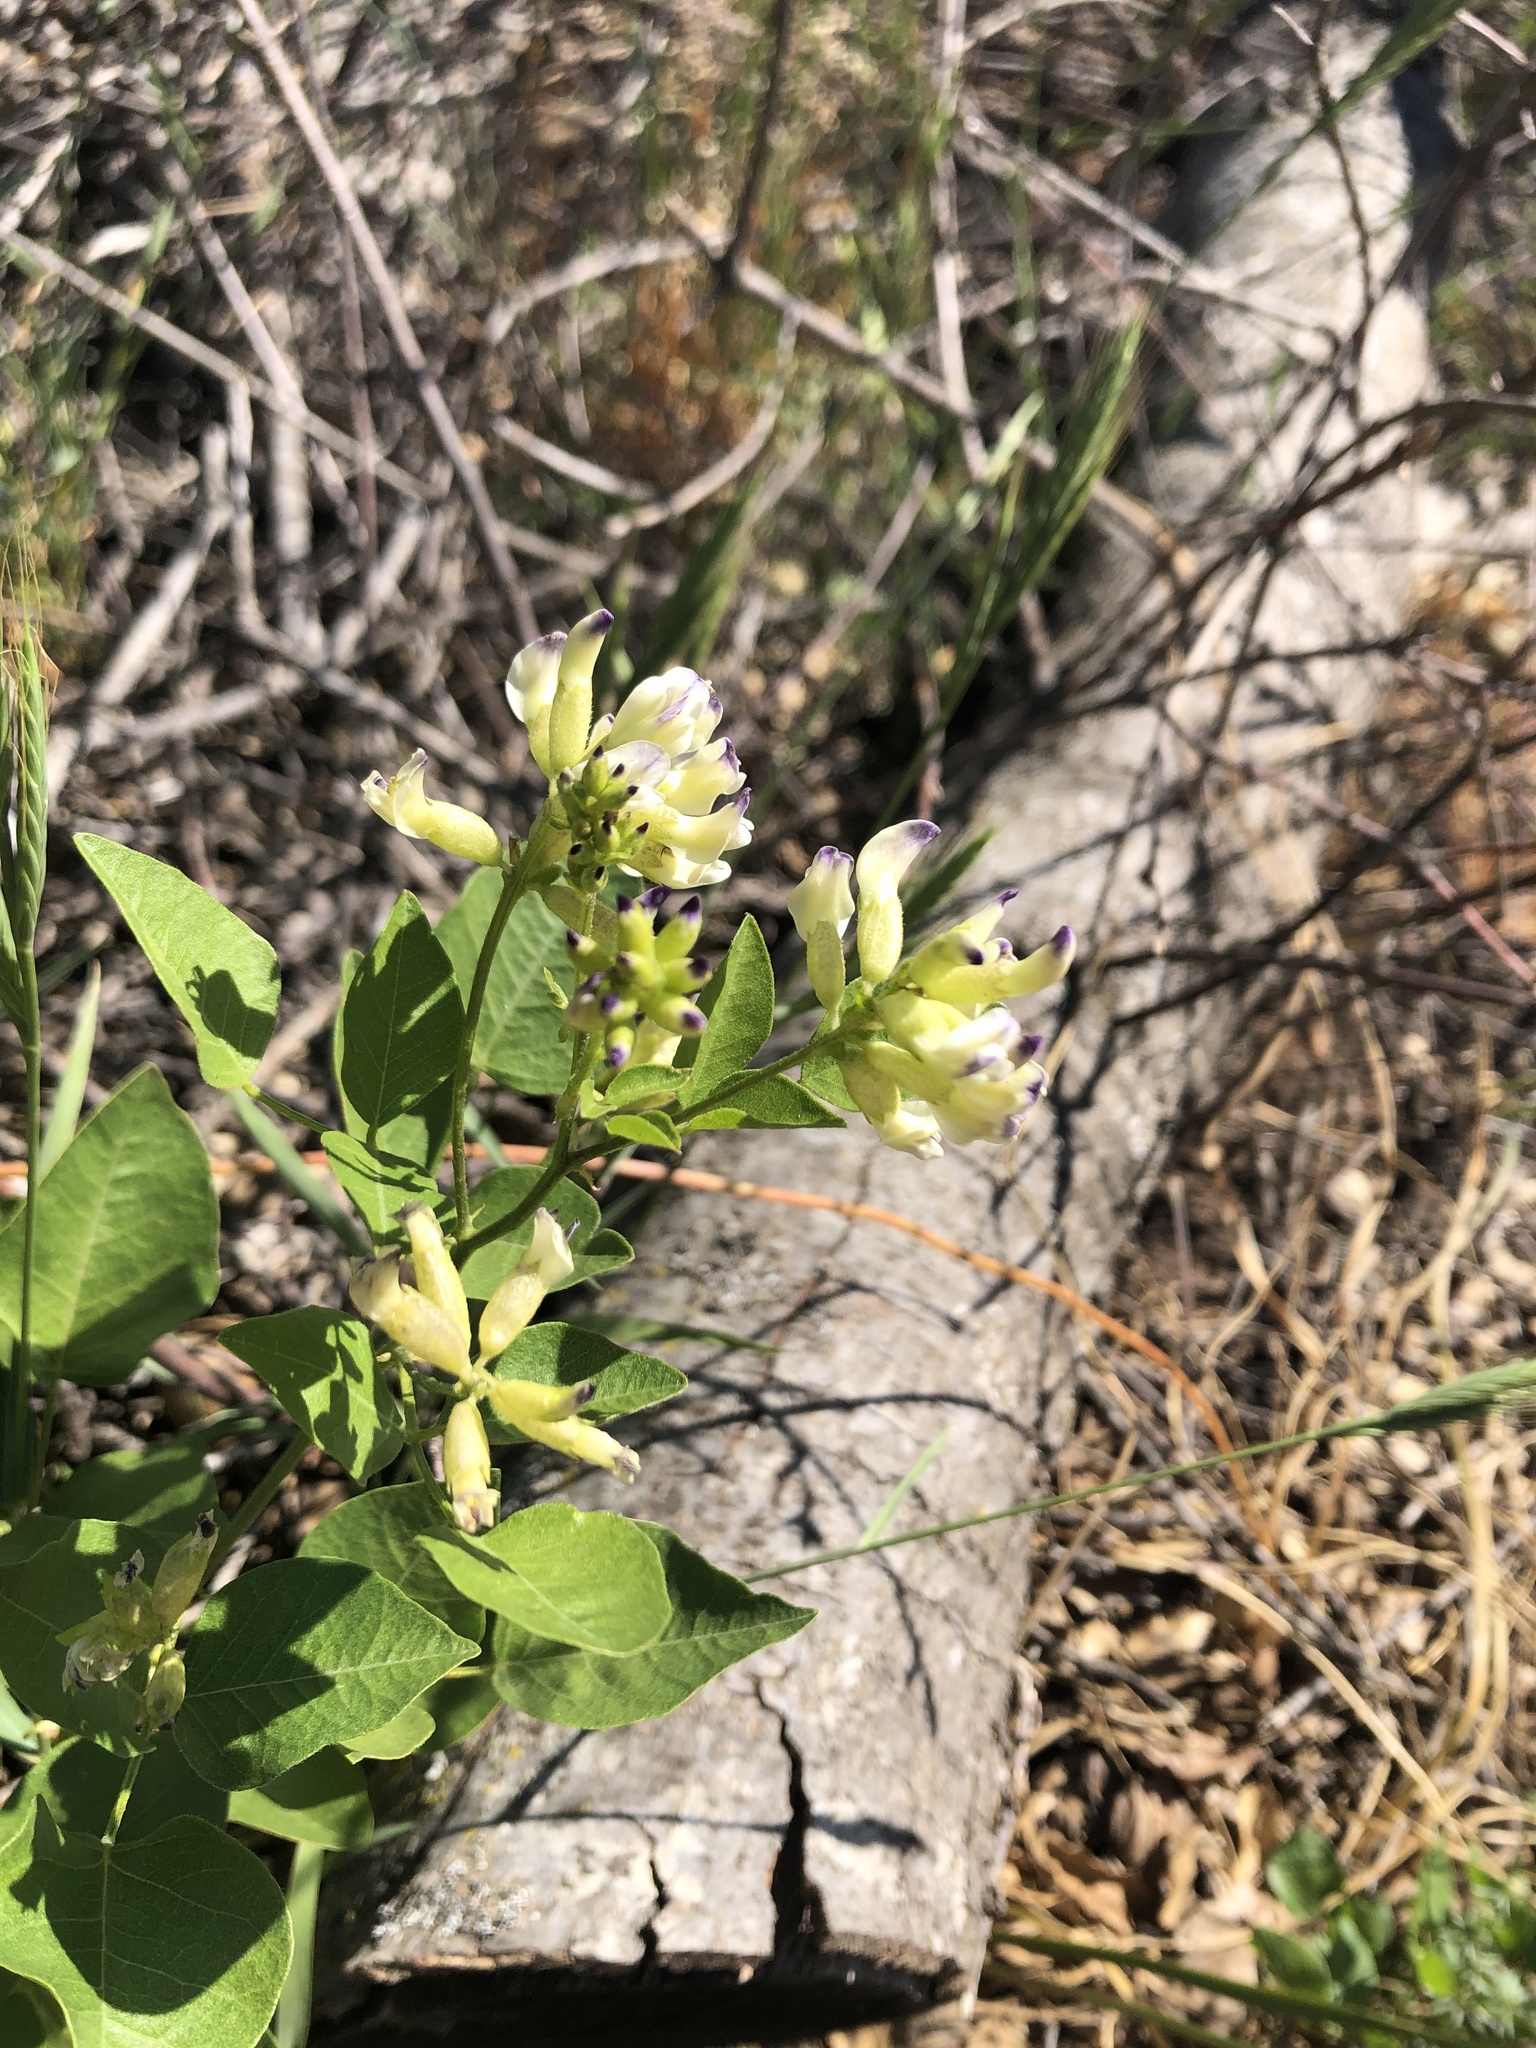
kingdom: Plantae
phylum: Tracheophyta
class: Magnoliopsida
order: Fabales
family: Fabaceae
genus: Rupertia
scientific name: Rupertia physodes
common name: California-tea
